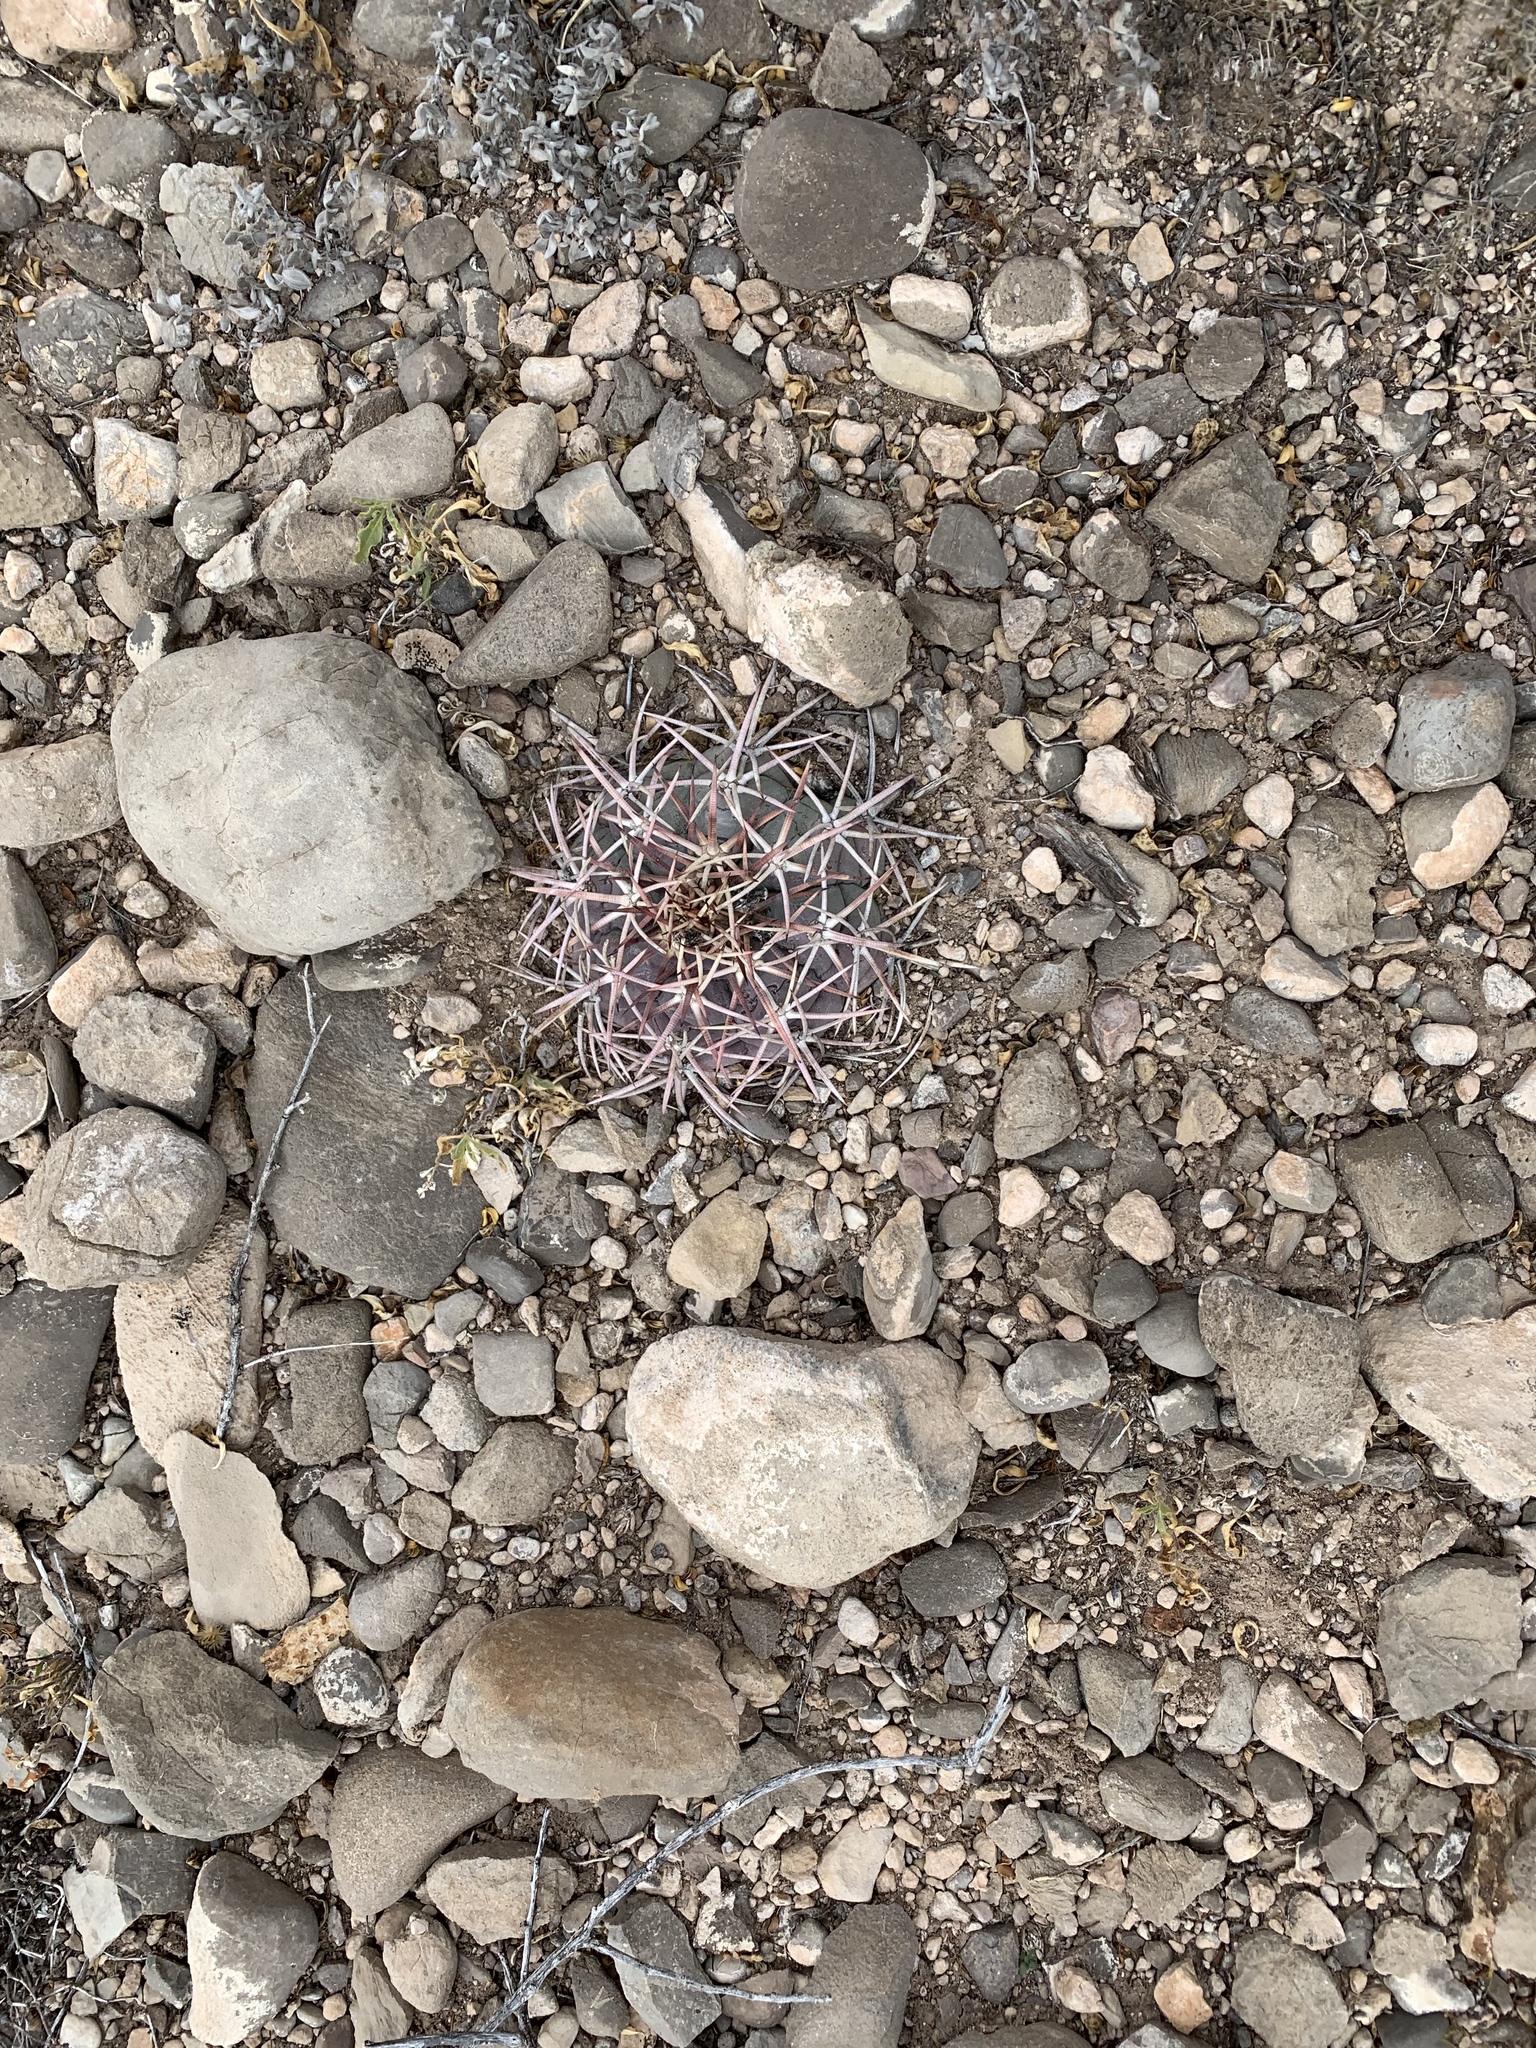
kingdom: Plantae
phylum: Tracheophyta
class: Magnoliopsida
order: Caryophyllales
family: Cactaceae
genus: Echinocactus
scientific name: Echinocactus horizonthalonius
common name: Devilshead
